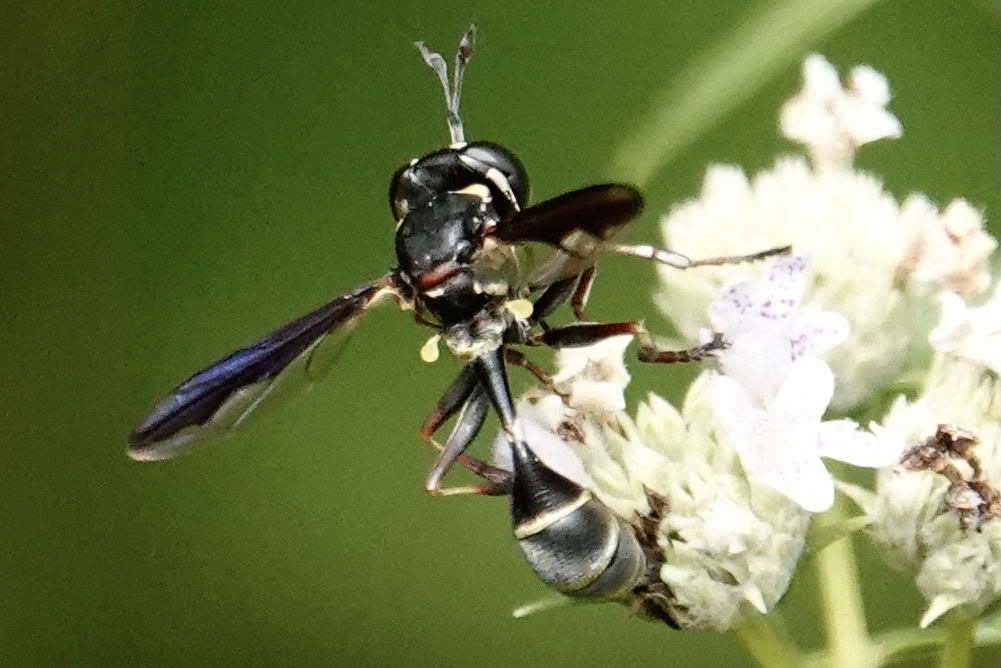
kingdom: Animalia
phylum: Arthropoda
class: Insecta
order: Diptera
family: Conopidae
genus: Physocephala
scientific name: Physocephala marginata
